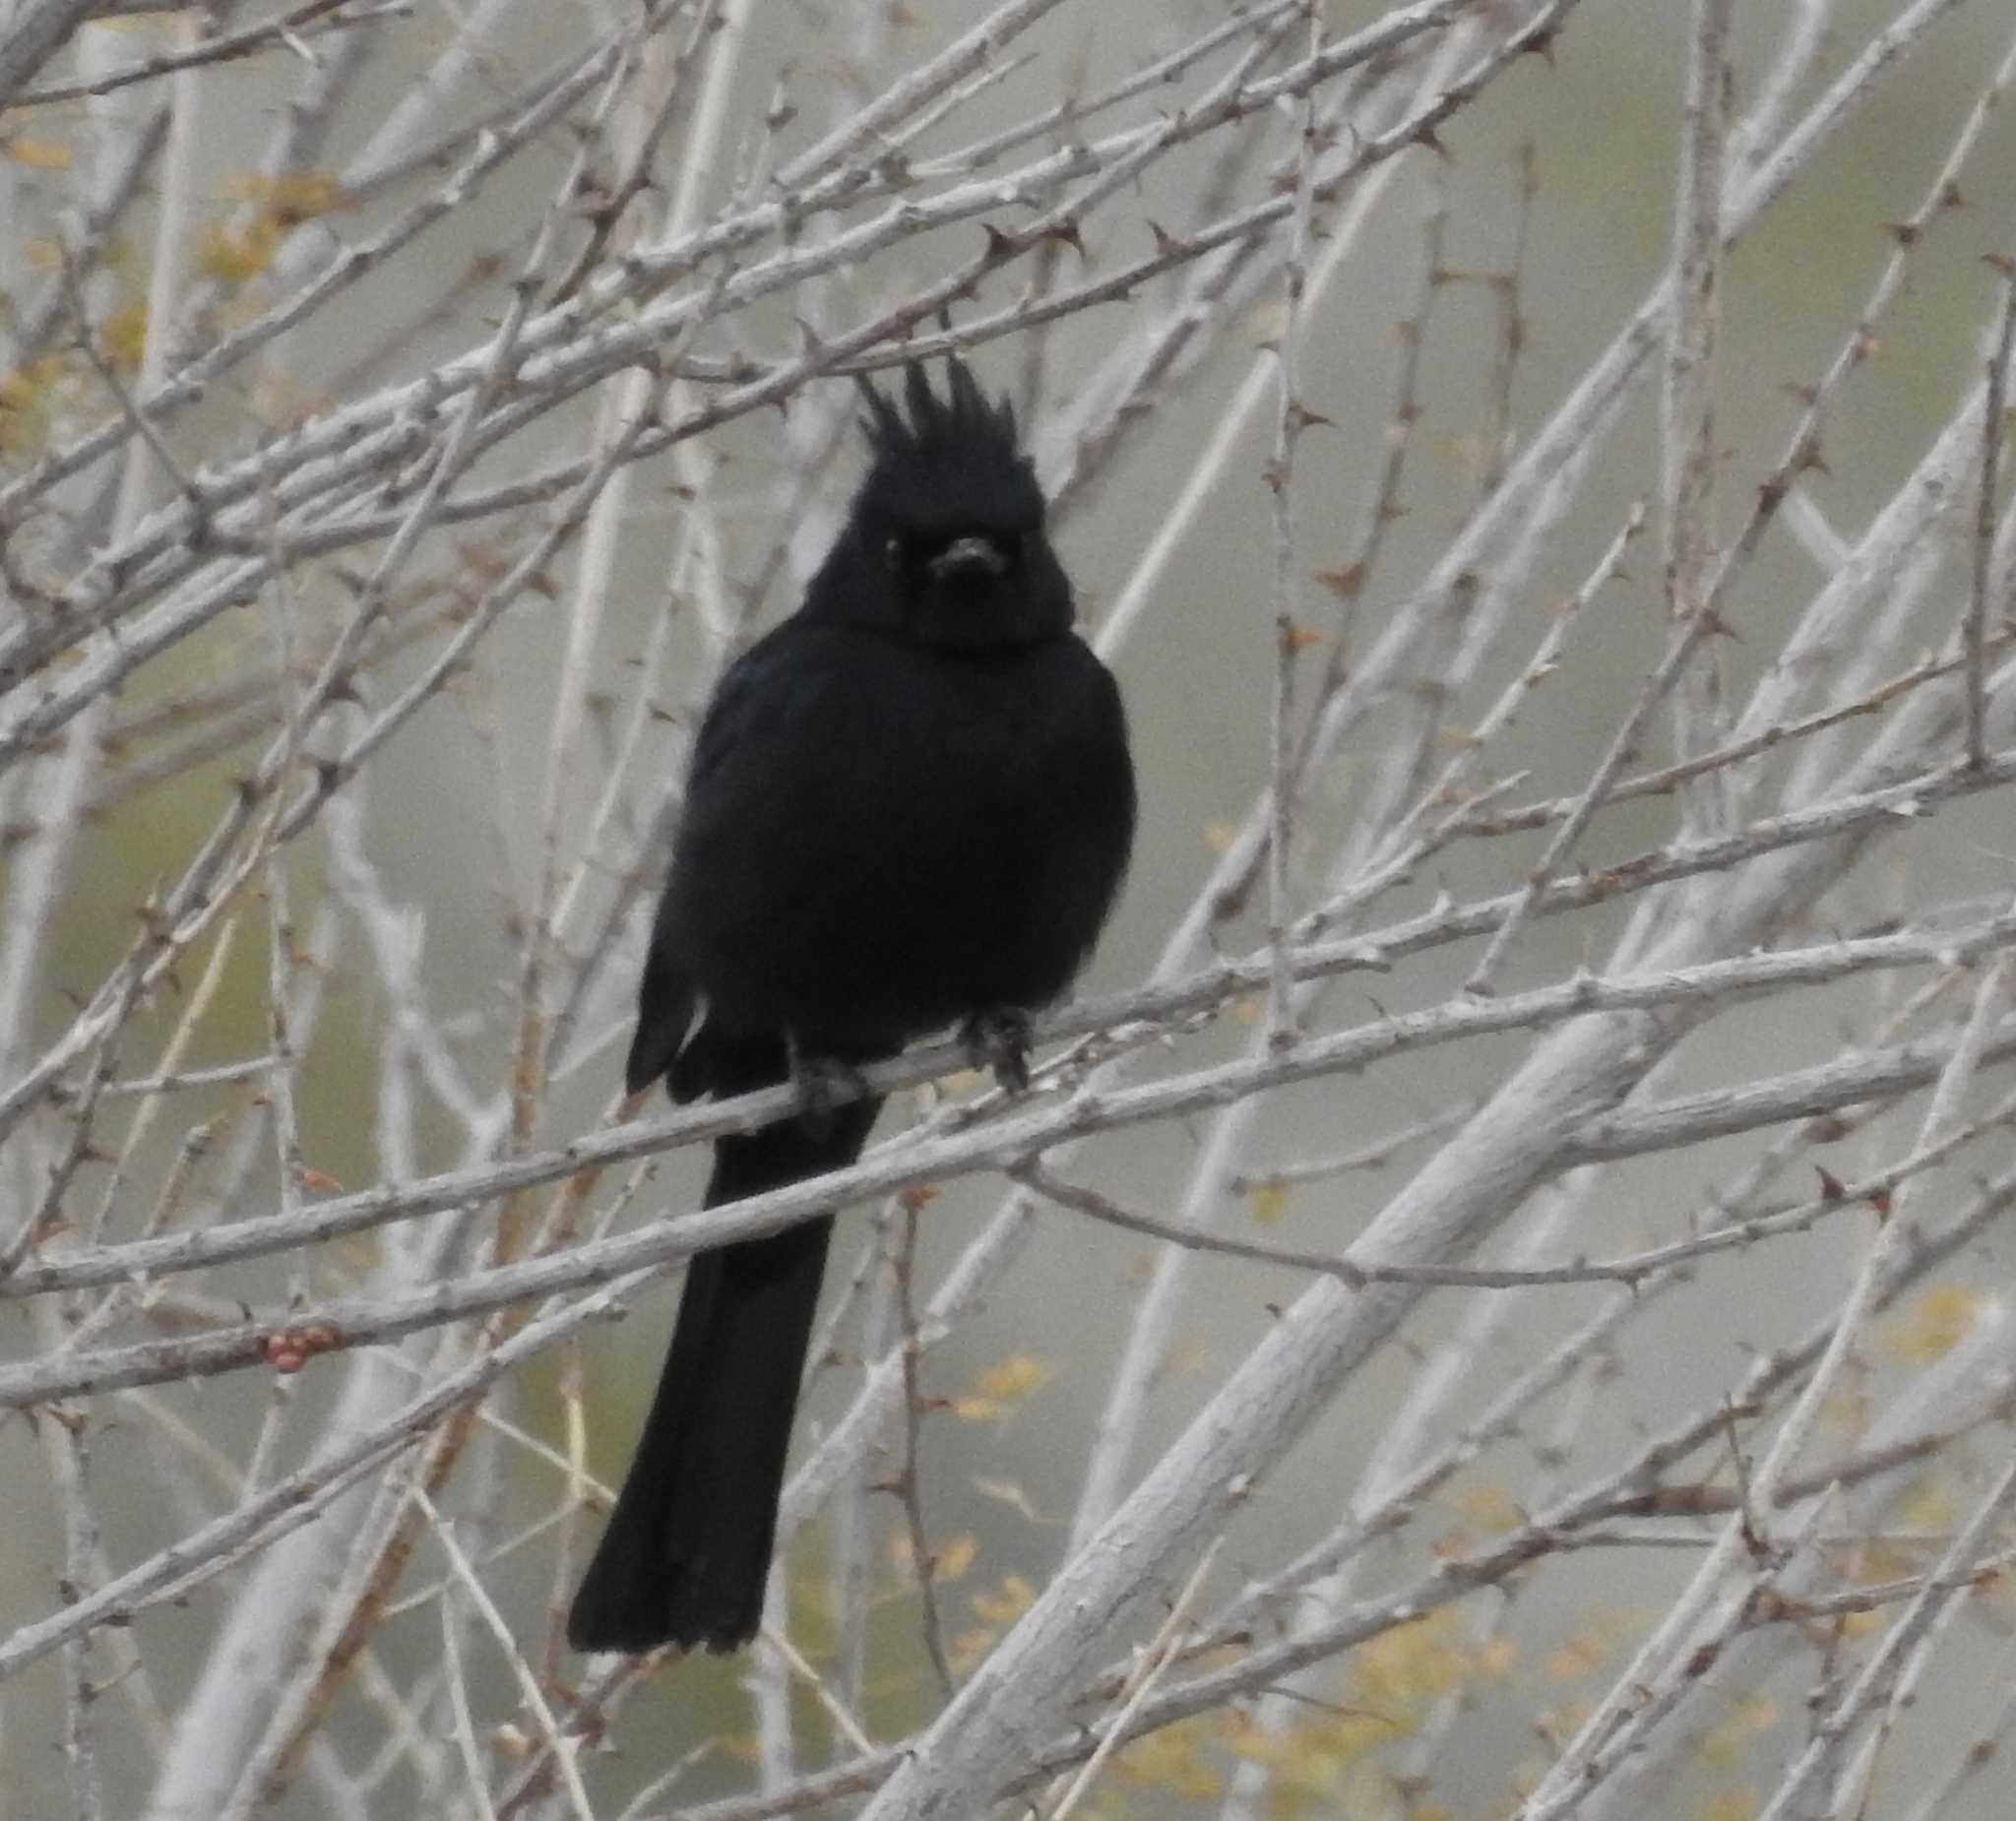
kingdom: Animalia
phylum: Chordata
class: Aves
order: Passeriformes
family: Ptilogonatidae
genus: Phainopepla
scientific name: Phainopepla nitens
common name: Phainopepla
